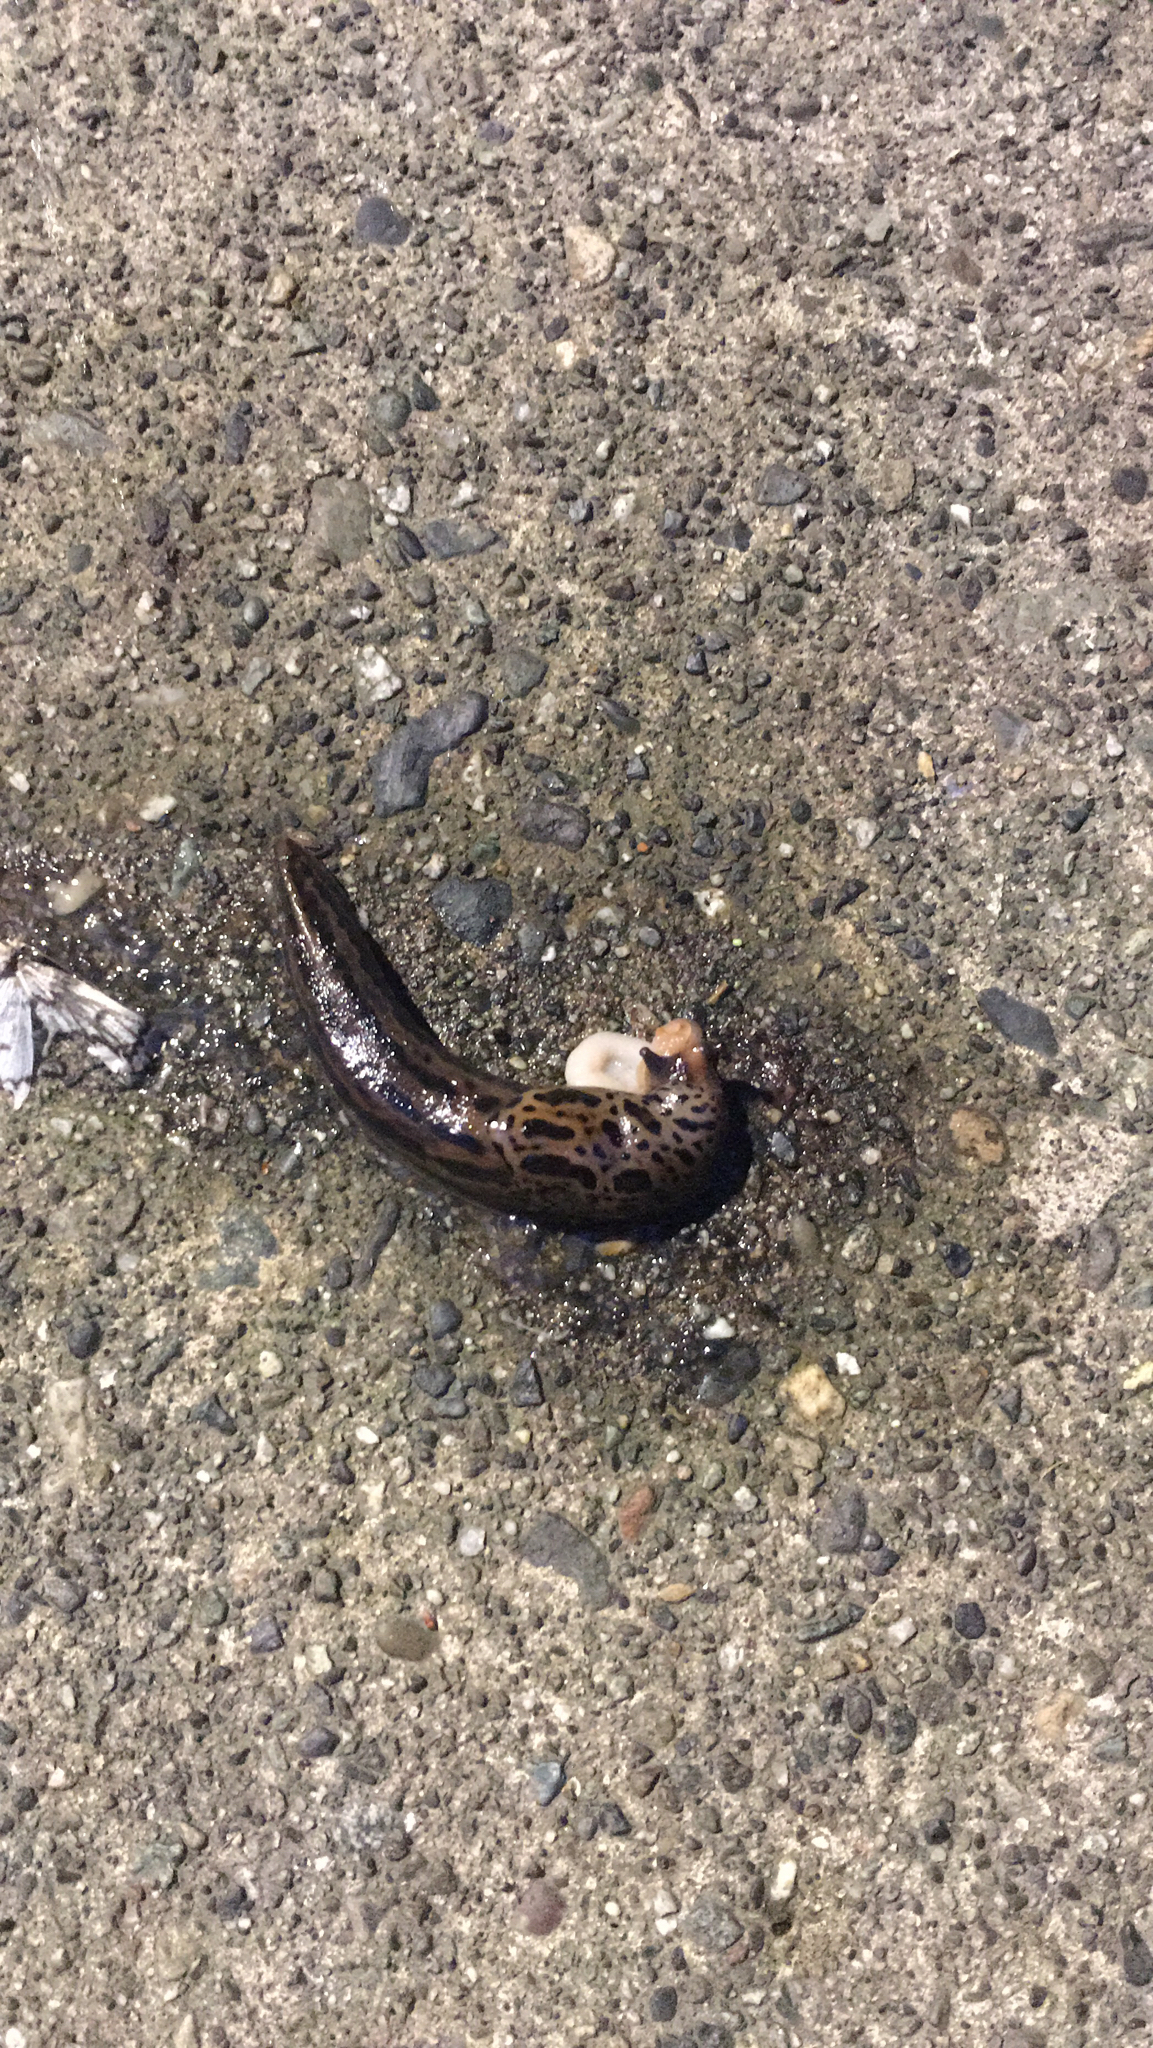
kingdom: Animalia
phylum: Mollusca
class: Gastropoda
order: Stylommatophora
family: Limacidae
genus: Limax
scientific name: Limax maximus
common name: Great grey slug
